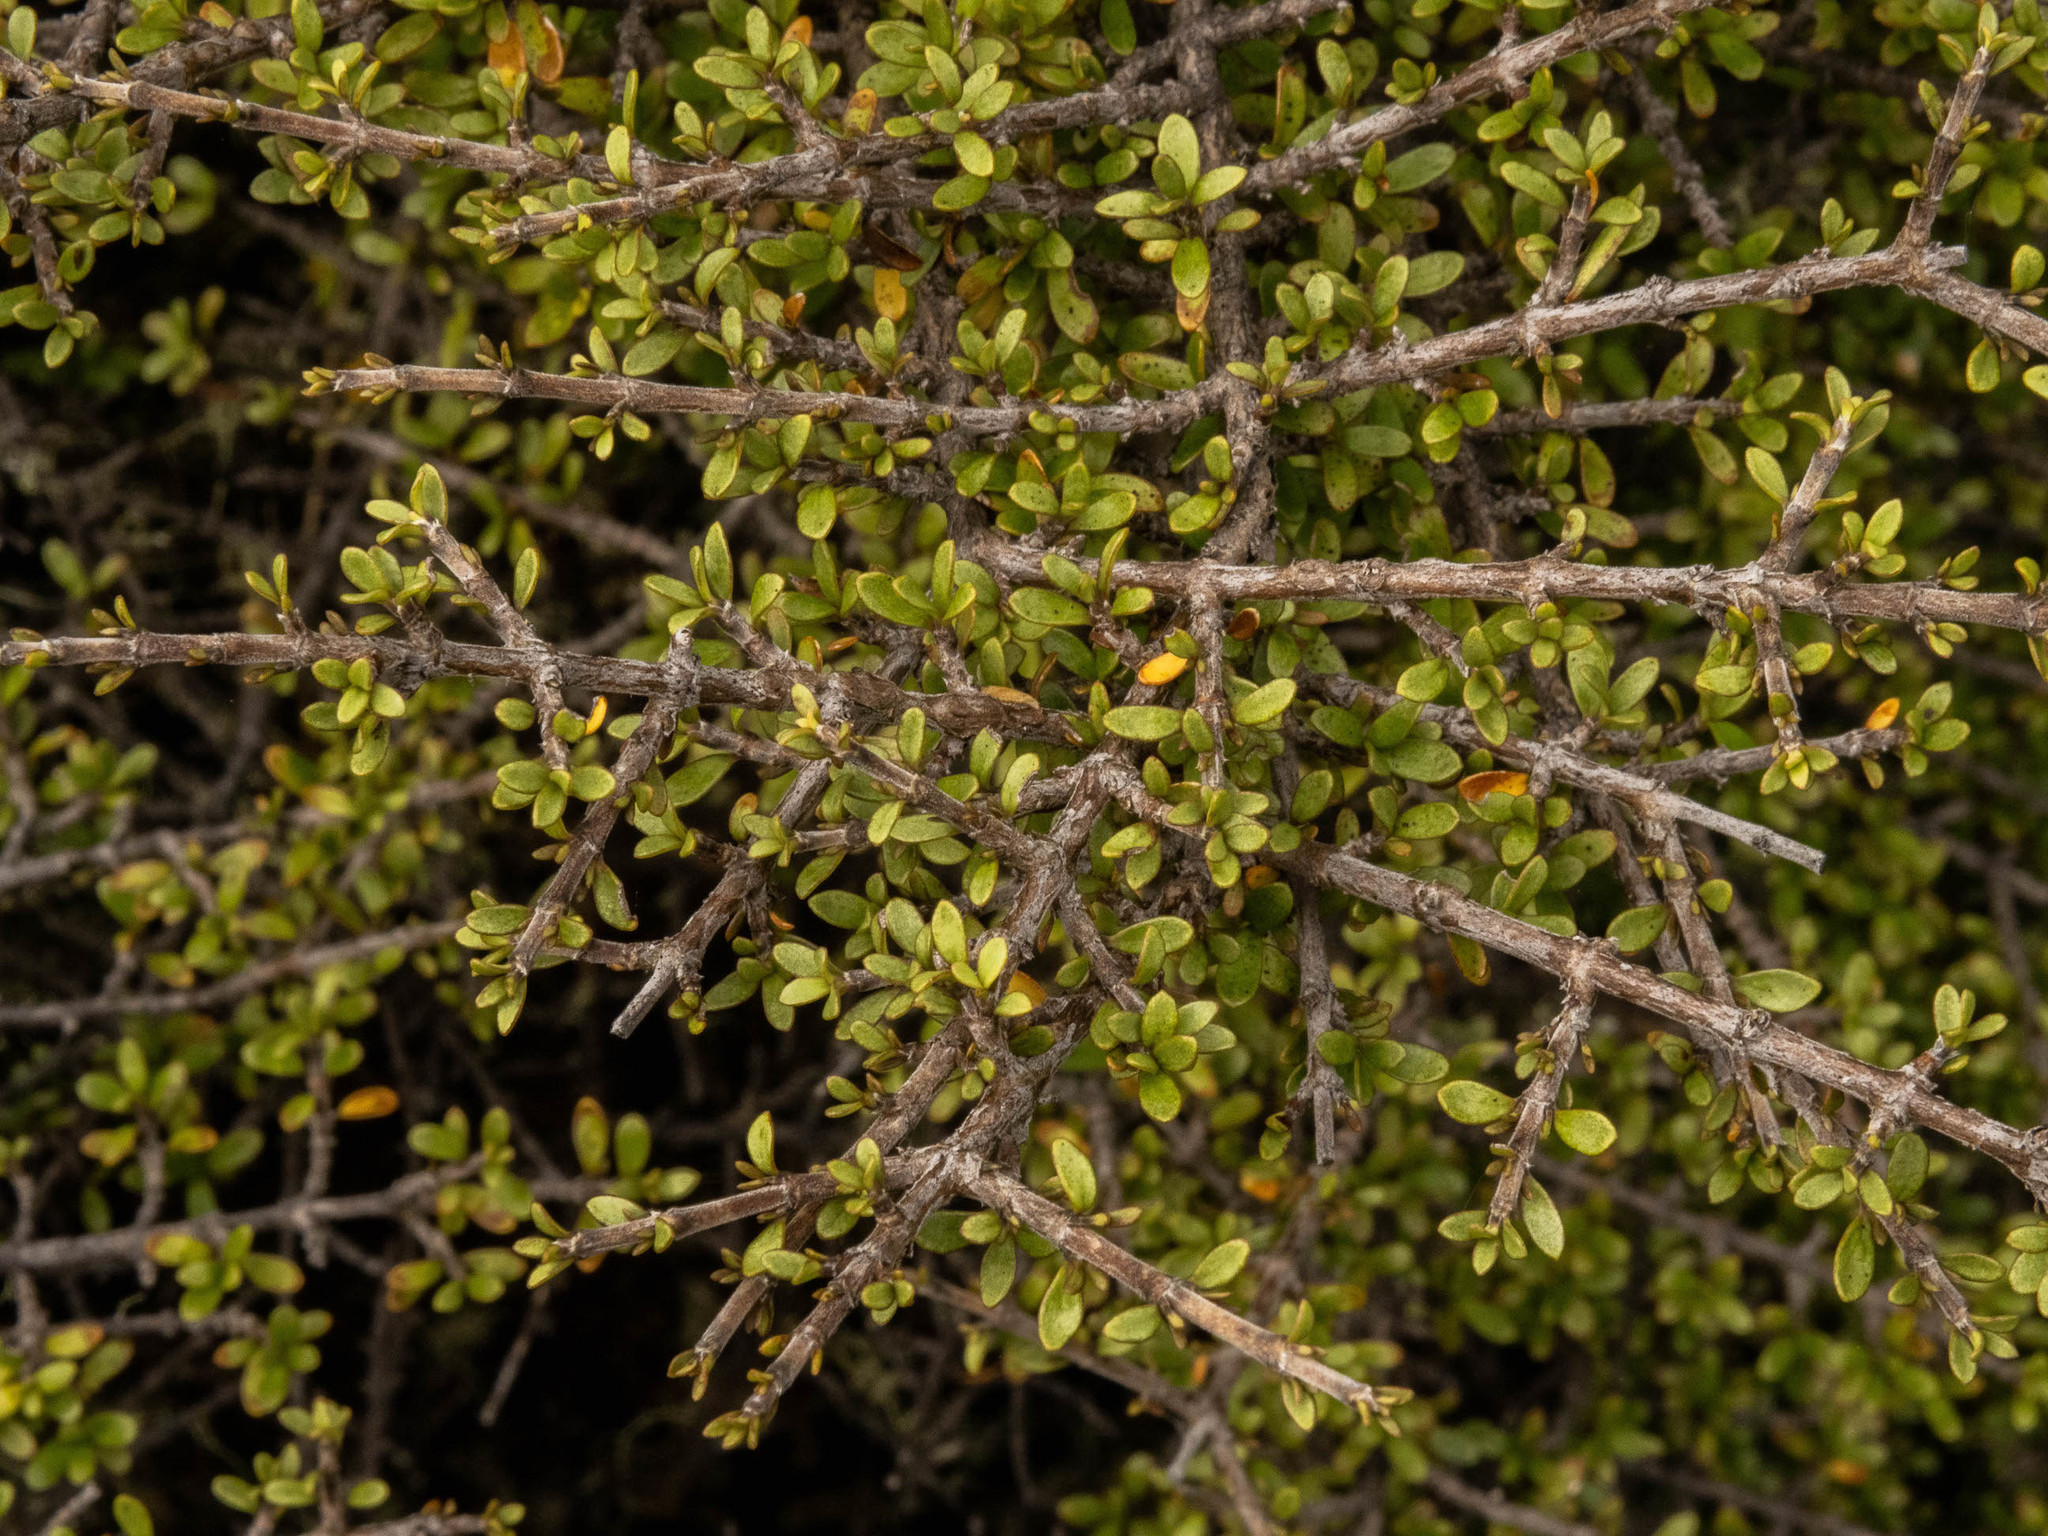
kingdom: Plantae
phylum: Tracheophyta
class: Magnoliopsida
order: Gentianales
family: Rubiaceae
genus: Coprosma
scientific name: Coprosma dumosa
